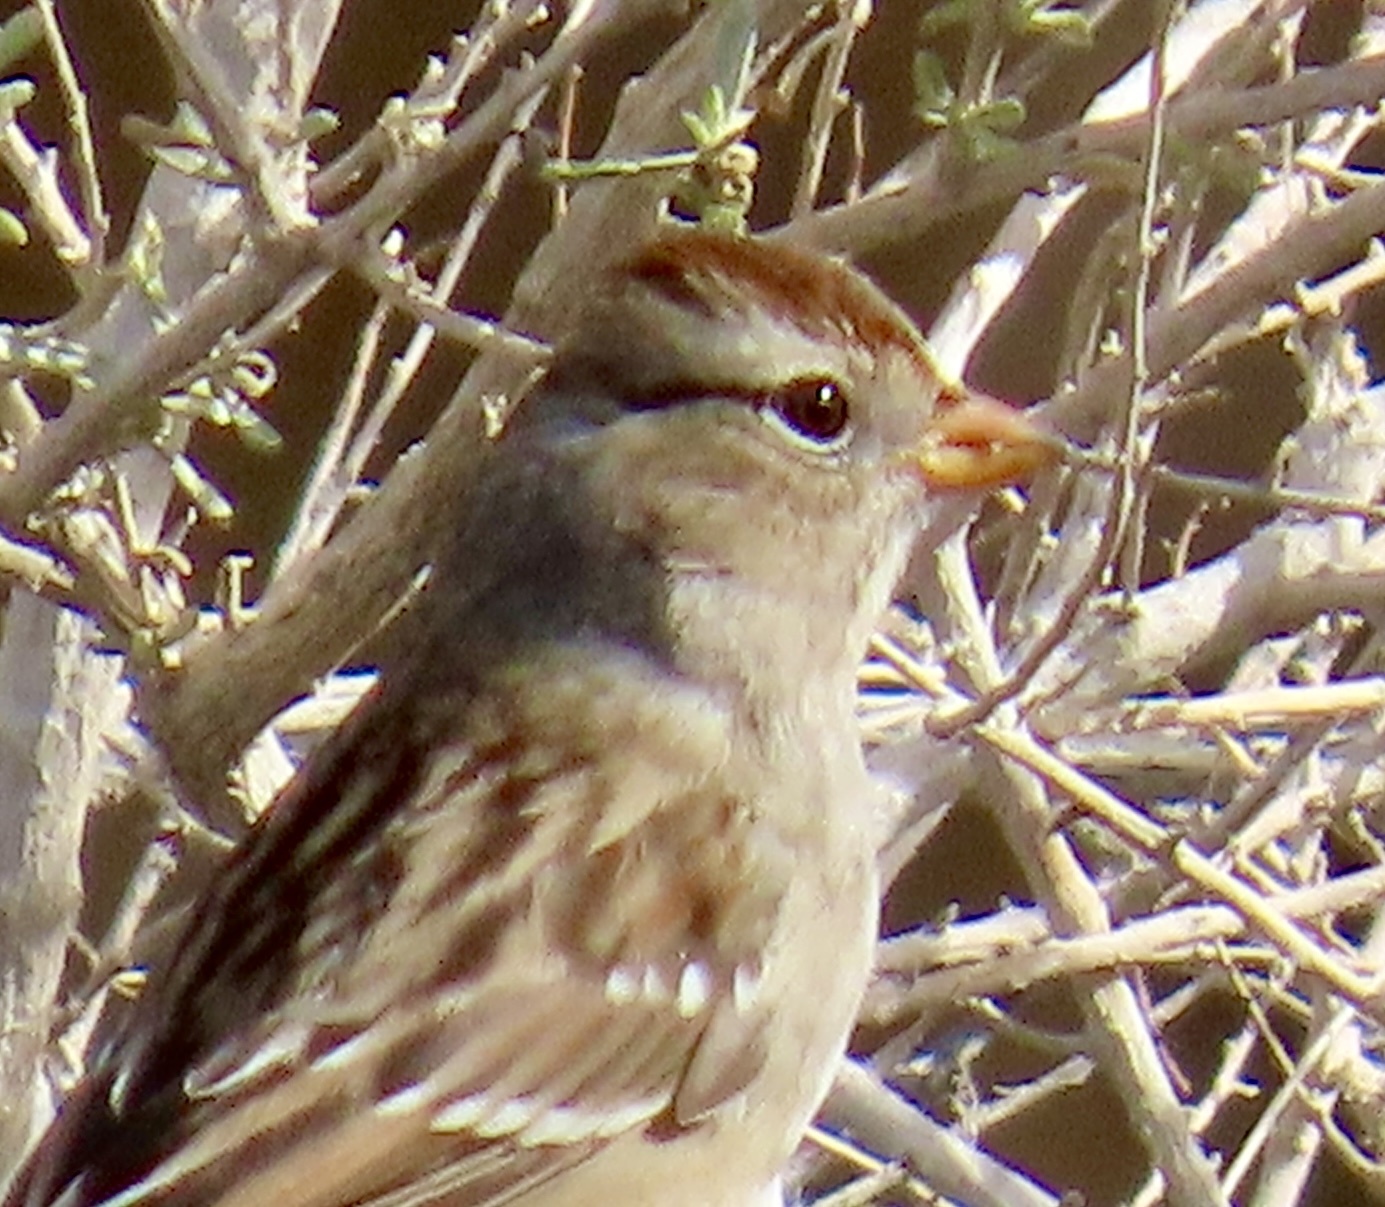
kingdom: Animalia
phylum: Chordata
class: Aves
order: Passeriformes
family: Passerellidae
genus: Zonotrichia
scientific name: Zonotrichia leucophrys
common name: White-crowned sparrow
